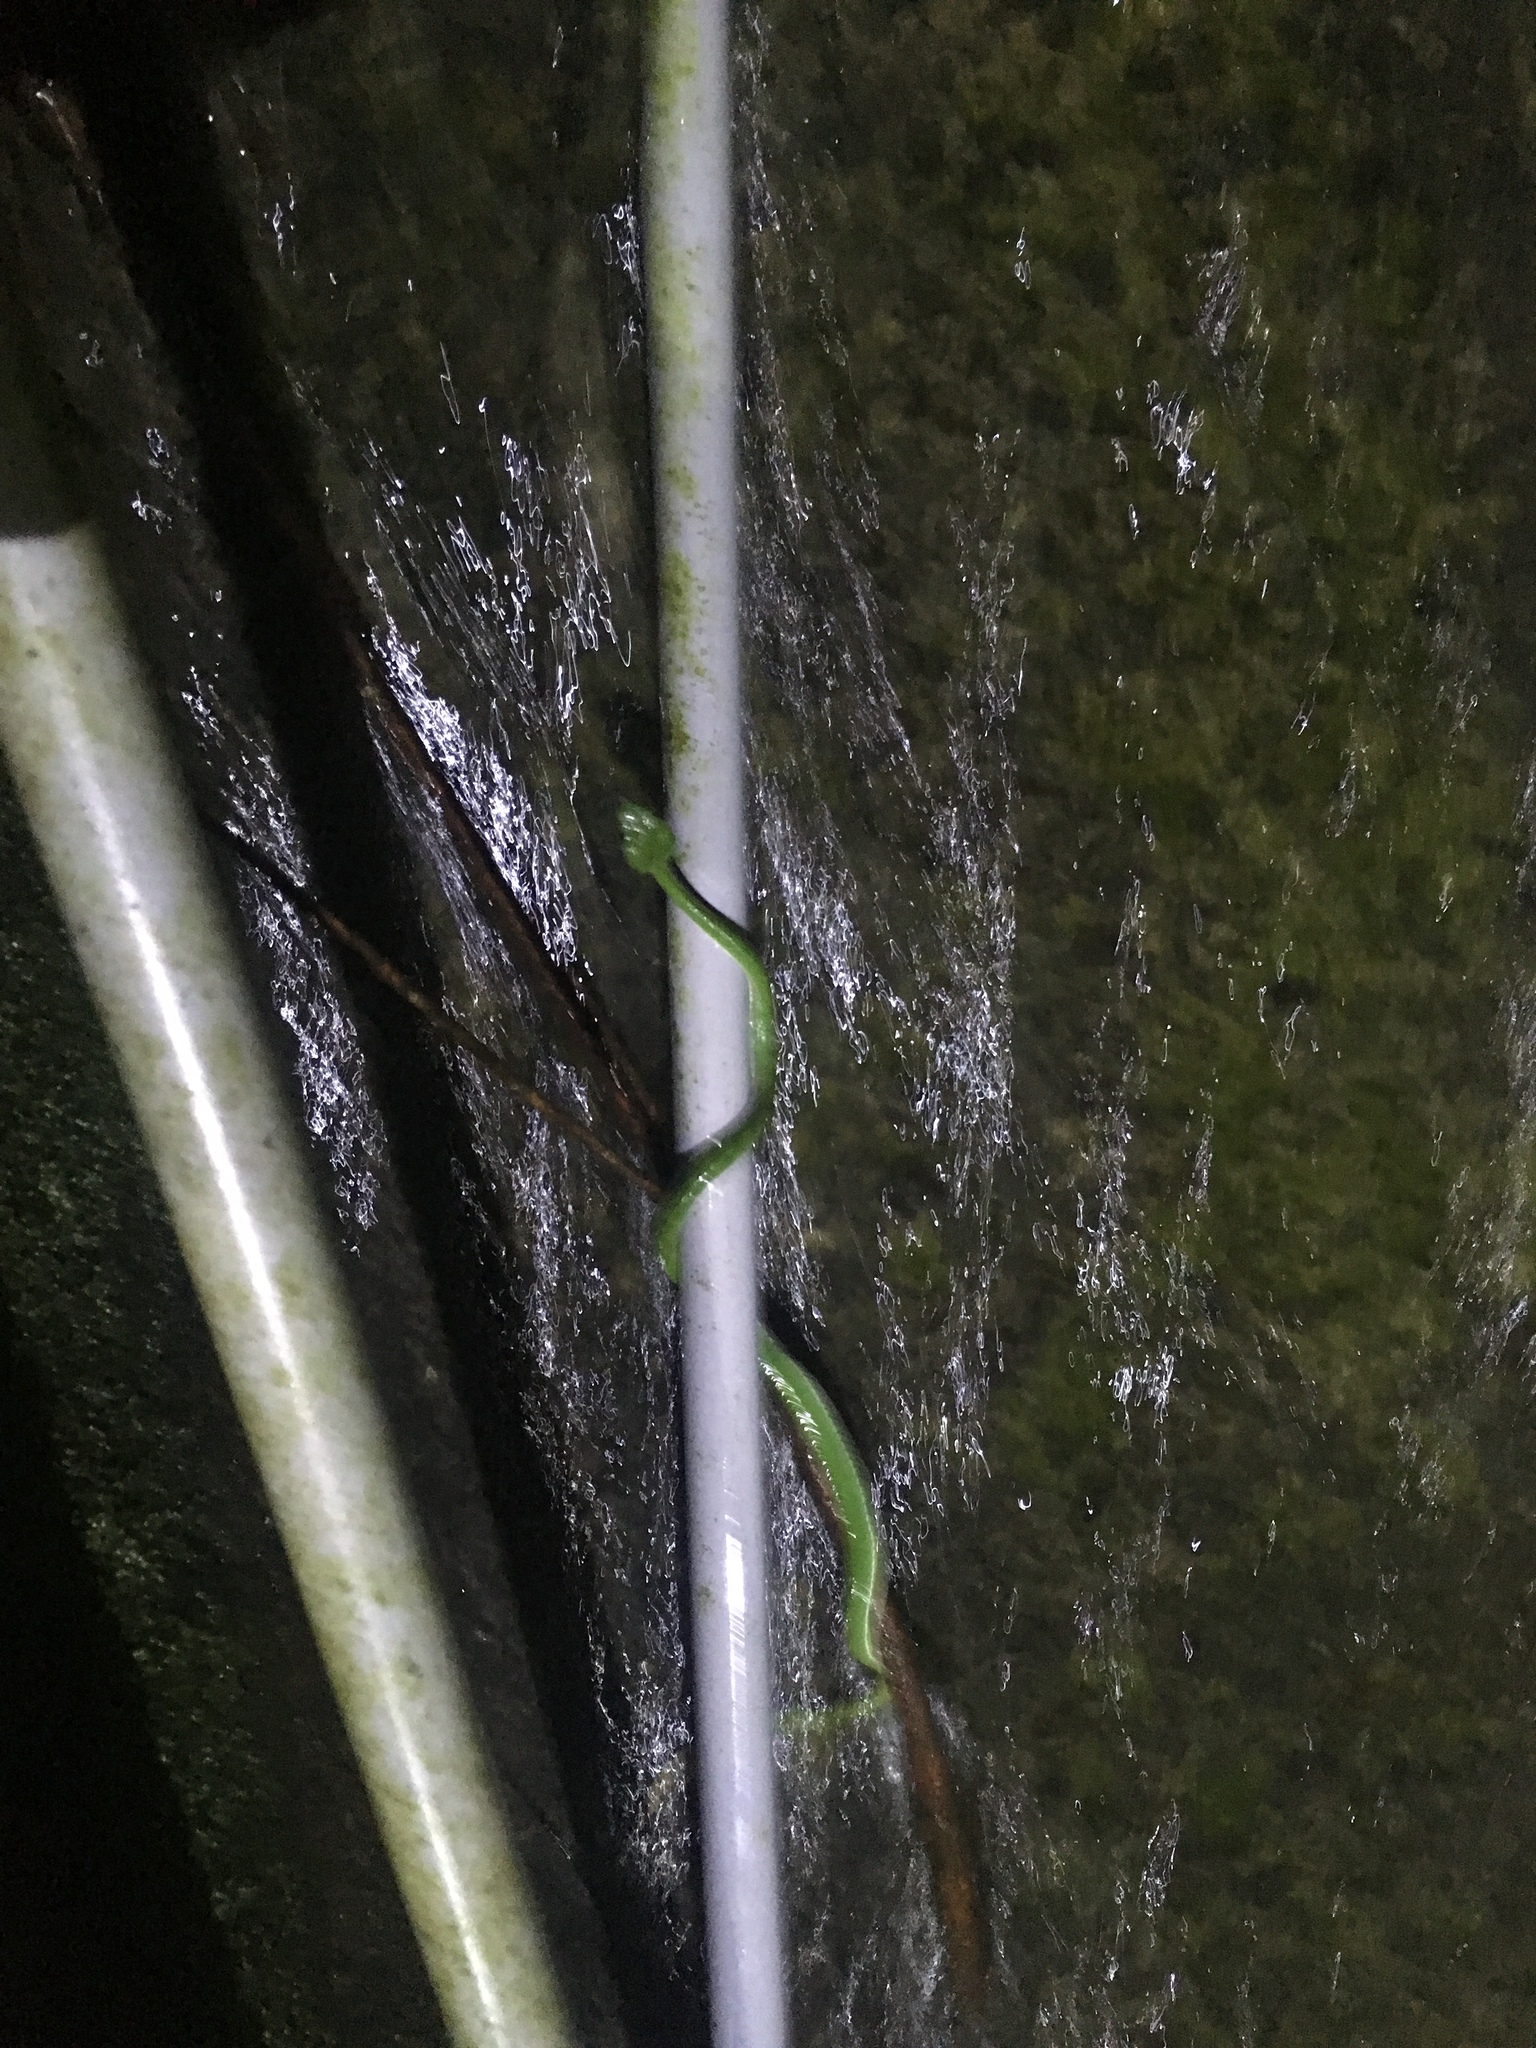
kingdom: Animalia
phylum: Chordata
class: Squamata
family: Viperidae
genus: Trimeresurus
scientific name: Trimeresurus stejnegeri
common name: Chen’s bamboo pit viper
